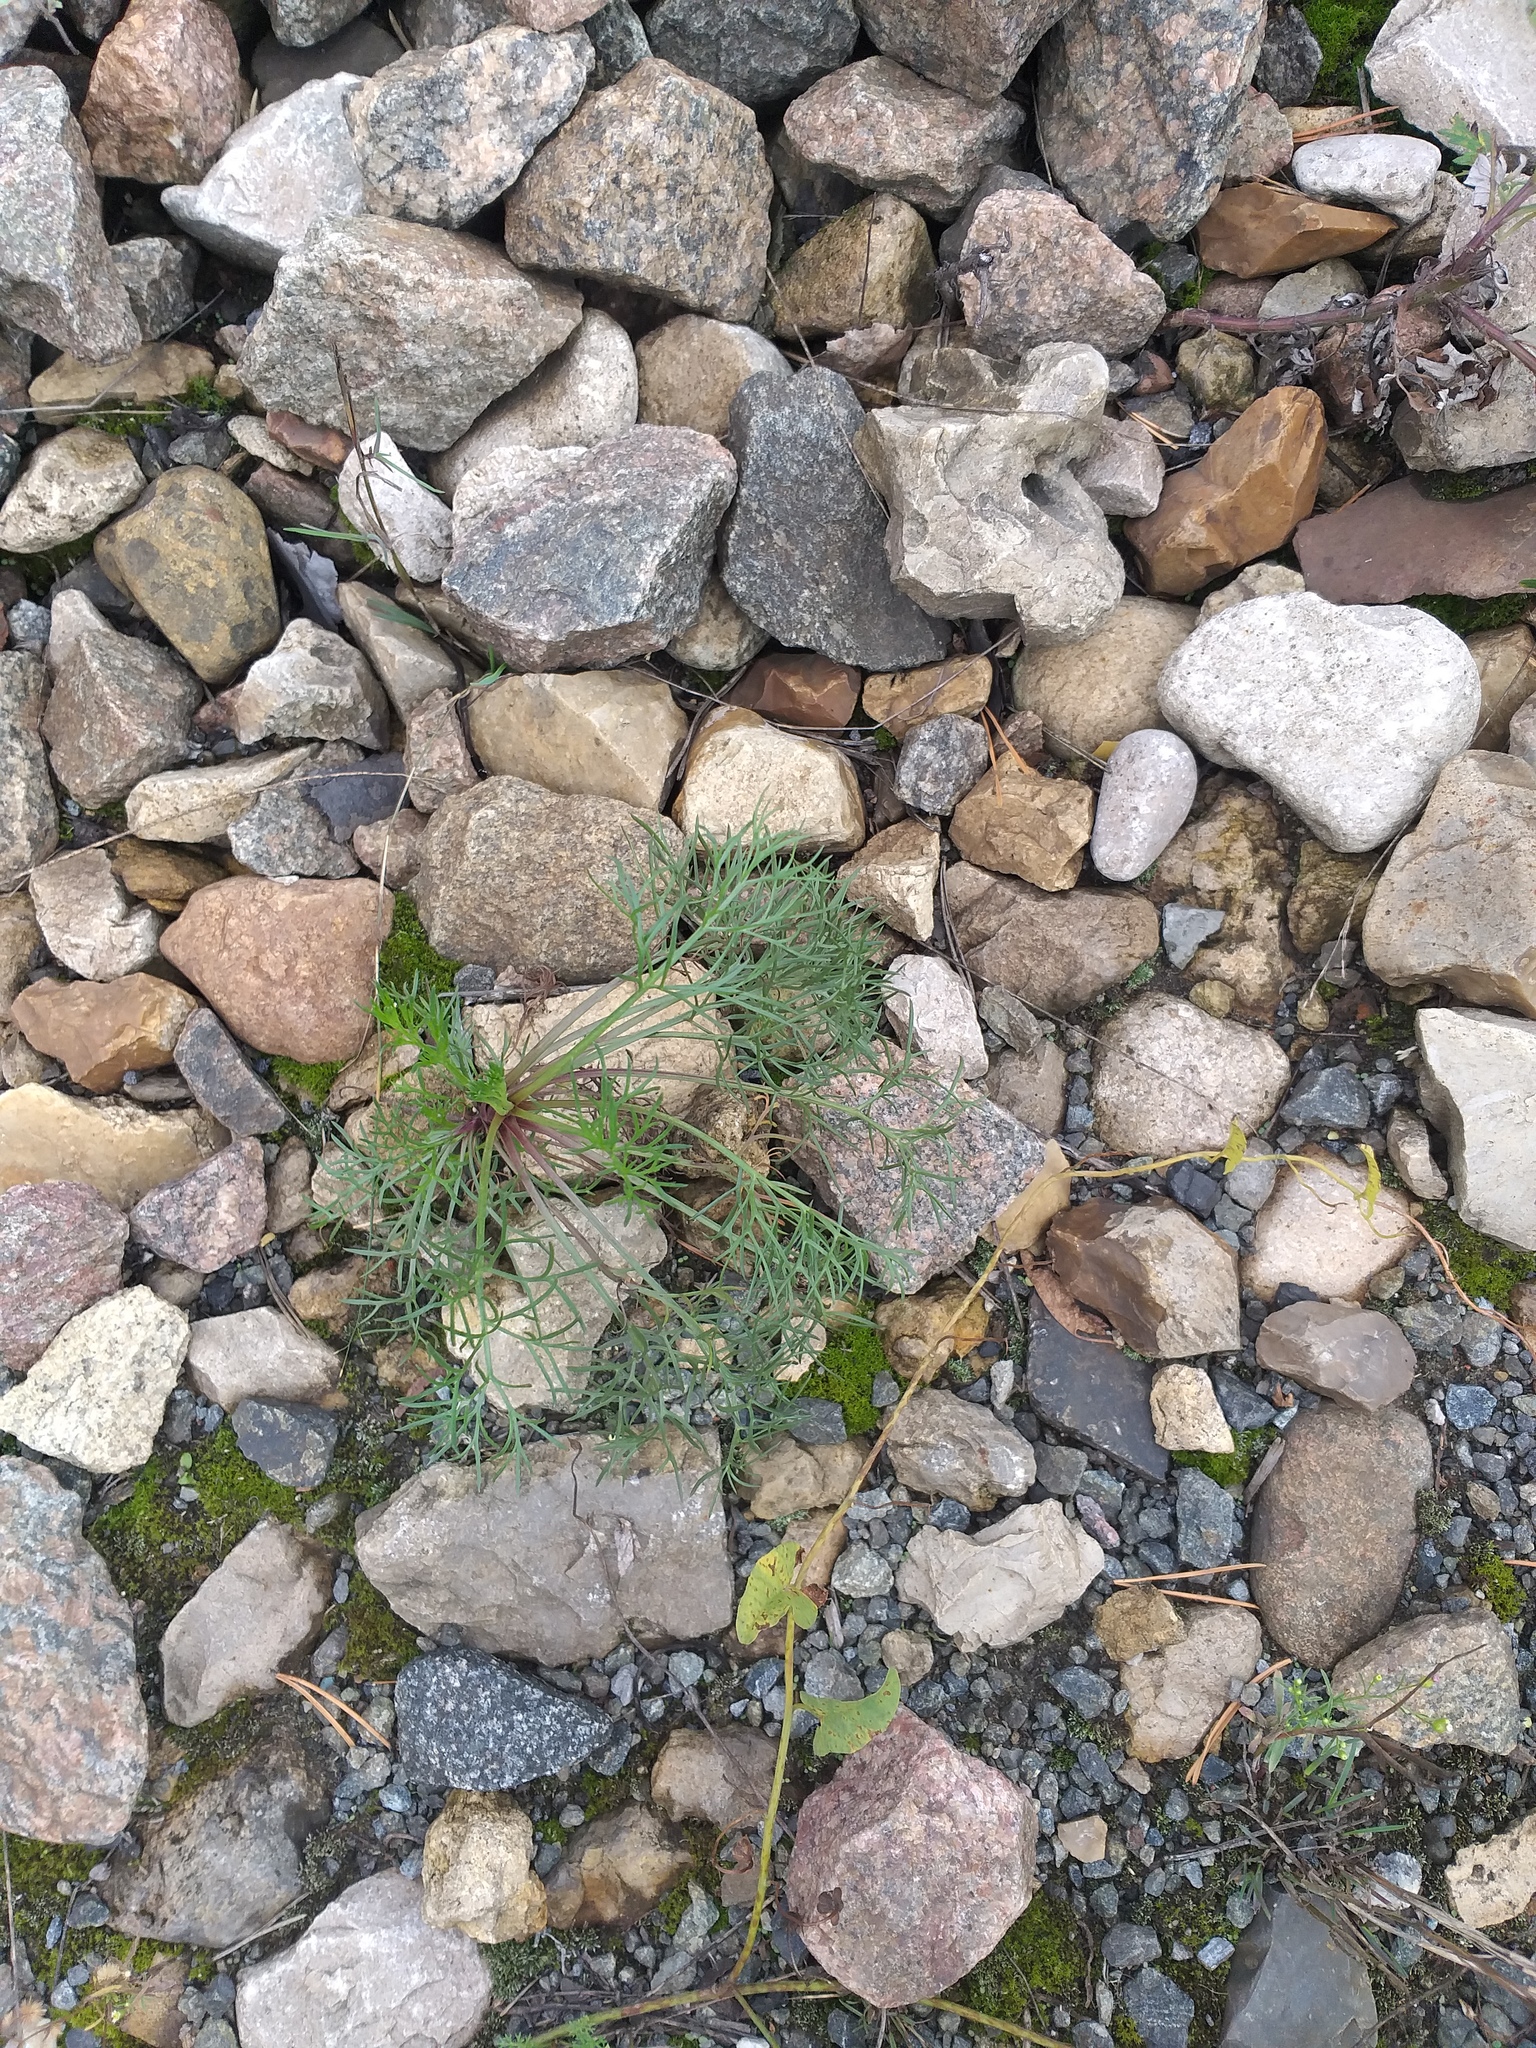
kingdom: Plantae
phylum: Tracheophyta
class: Magnoliopsida
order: Asterales
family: Asteraceae
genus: Artemisia
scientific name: Artemisia campestris
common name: Field wormwood
